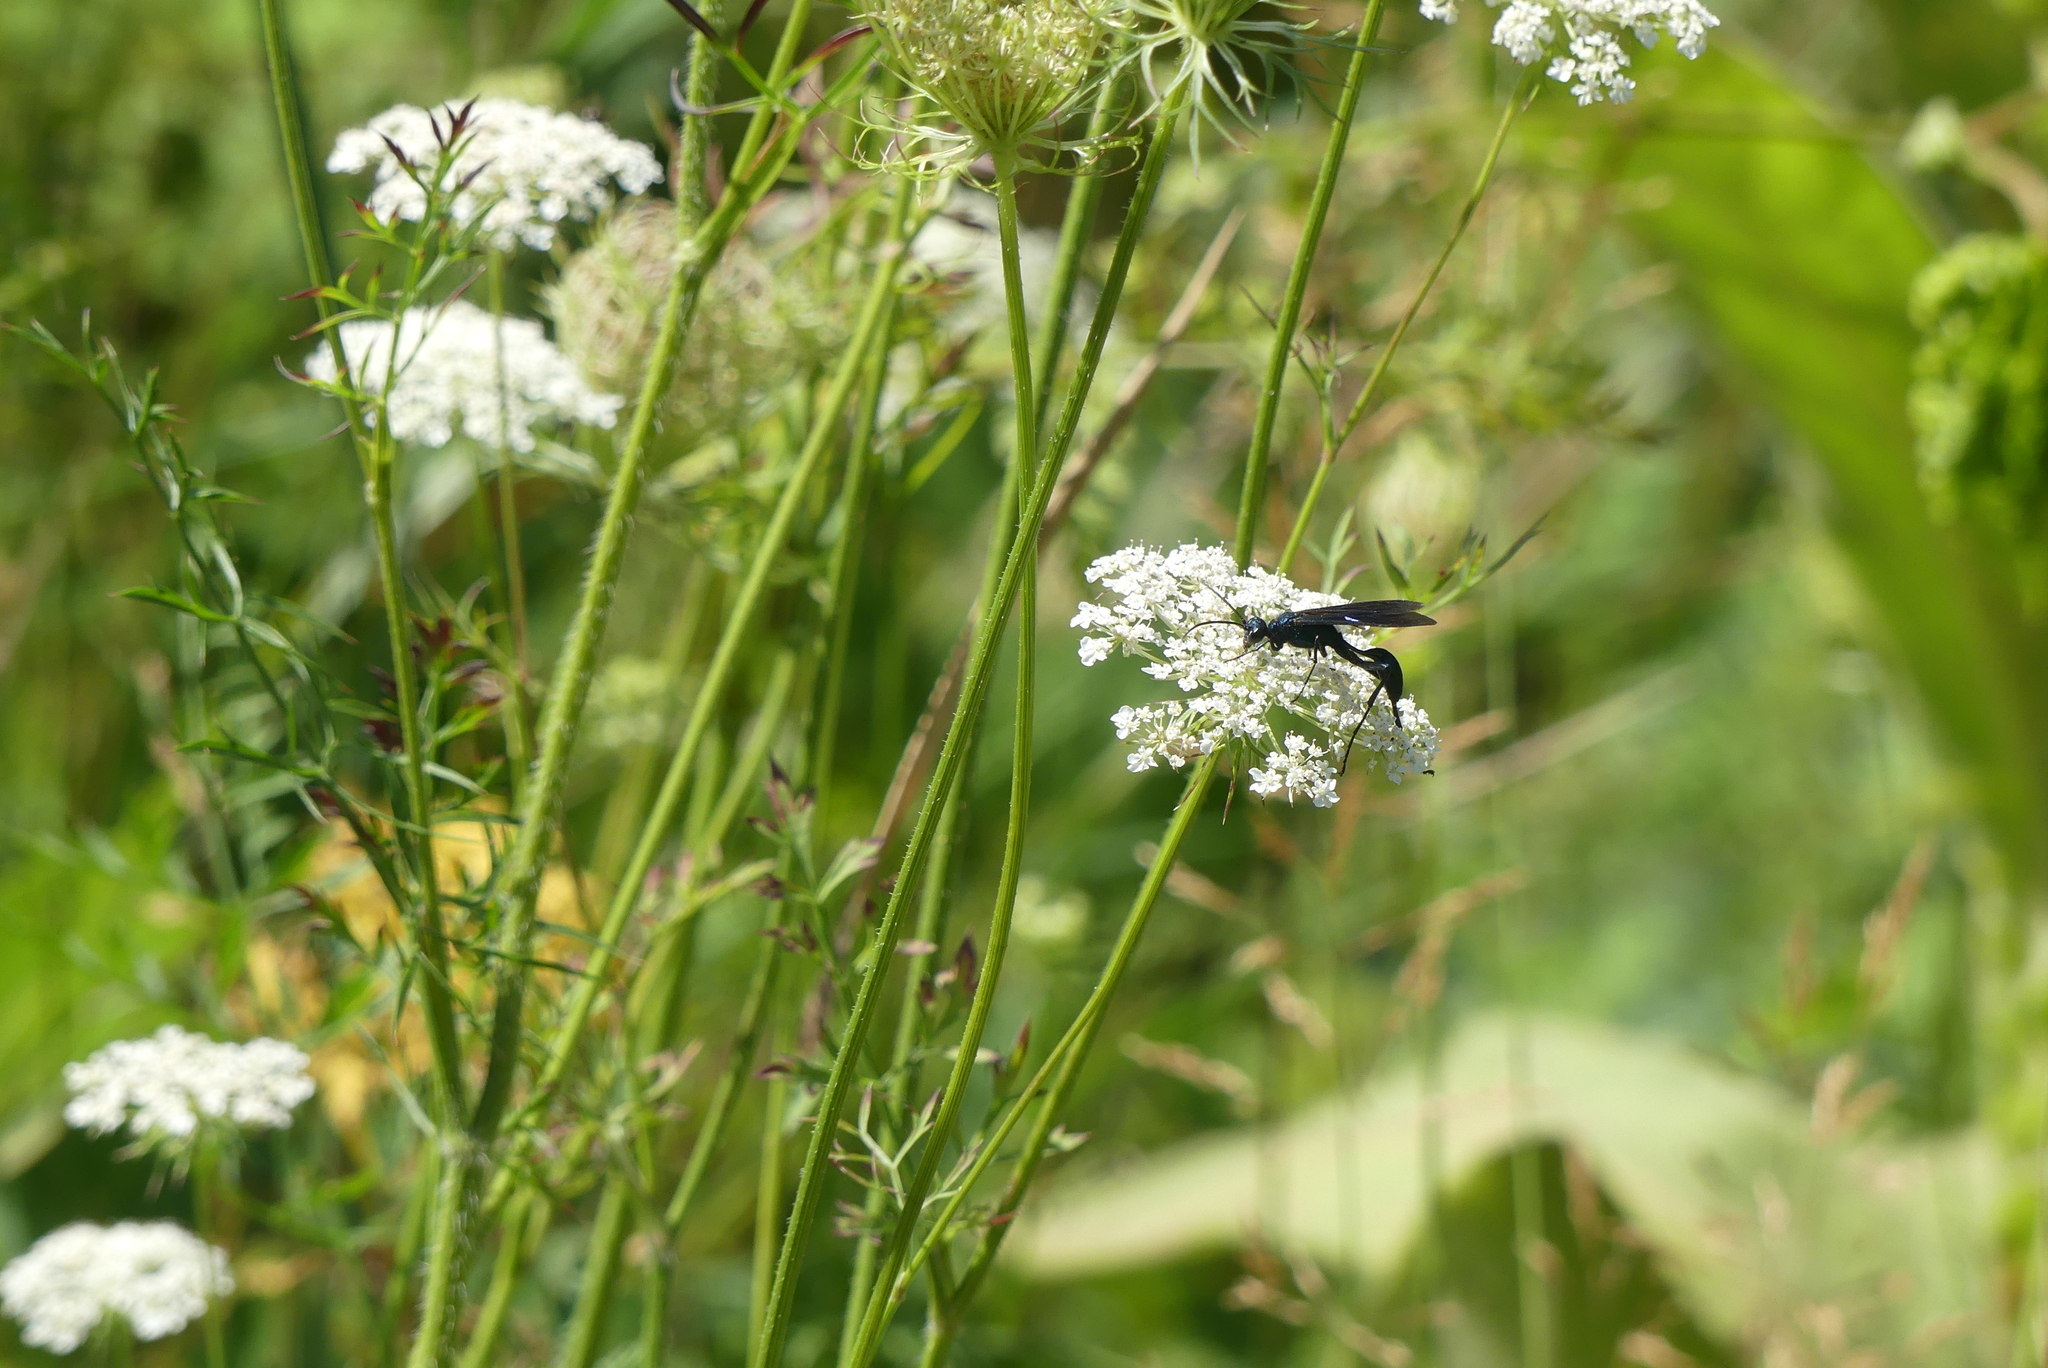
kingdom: Animalia
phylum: Arthropoda
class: Insecta
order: Hymenoptera
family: Sphecidae
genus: Chalybion
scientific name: Chalybion californicum
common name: Mud dauber
